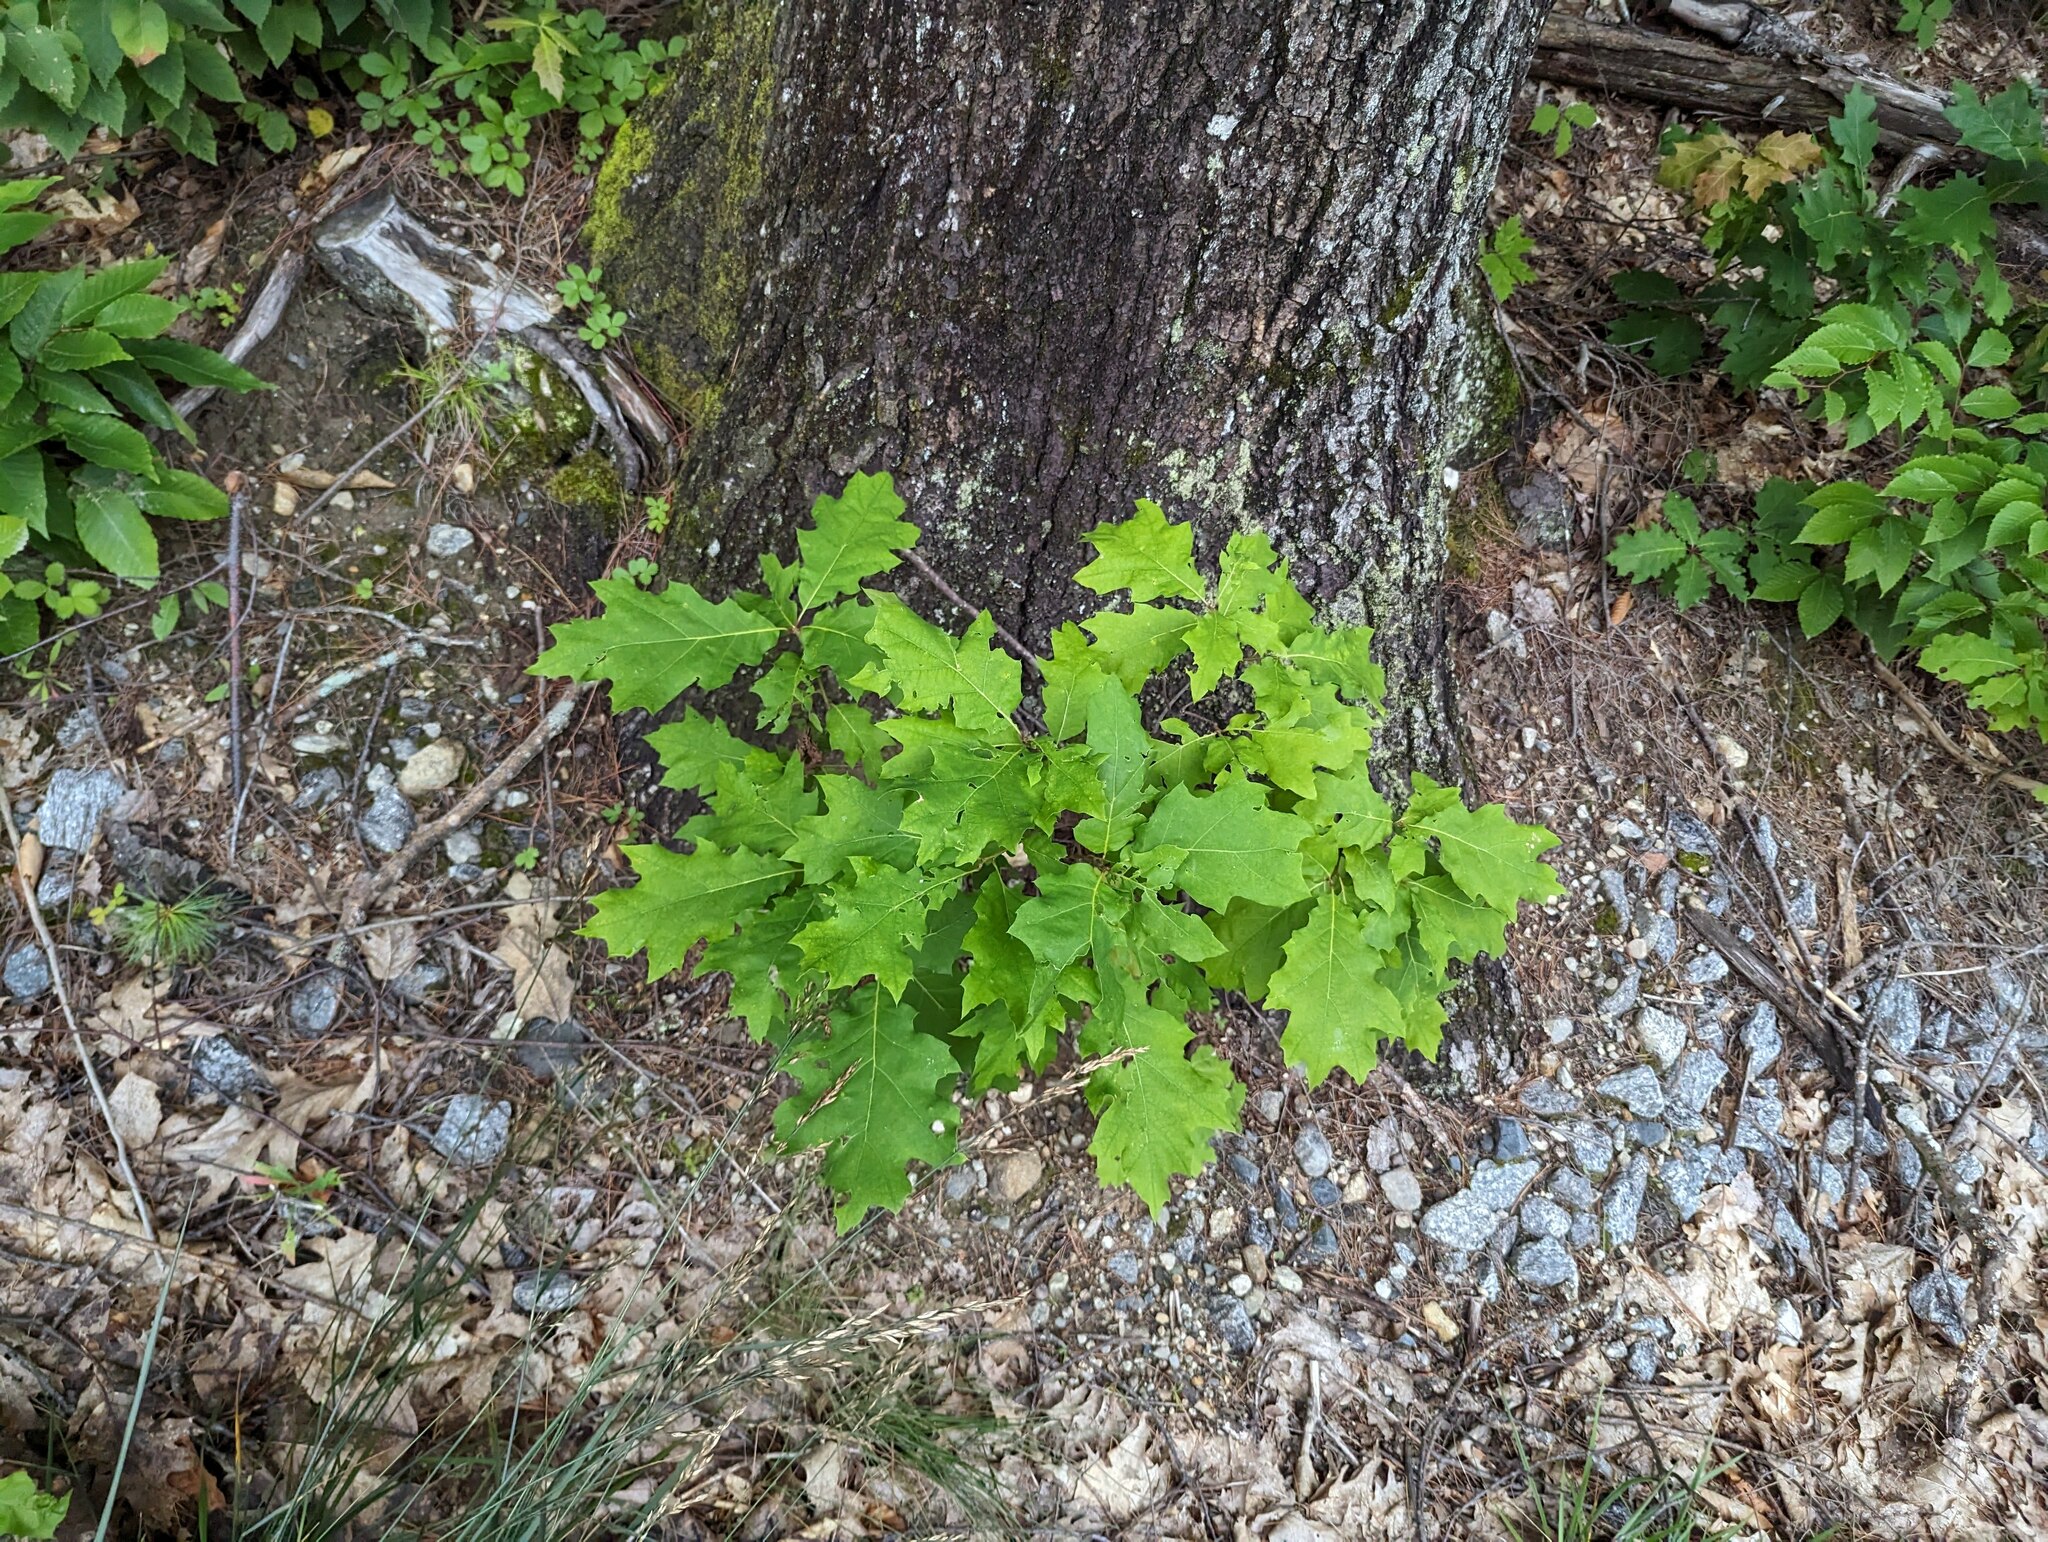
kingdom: Plantae
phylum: Tracheophyta
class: Magnoliopsida
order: Fagales
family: Fagaceae
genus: Quercus
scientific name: Quercus rubra
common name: Red oak
